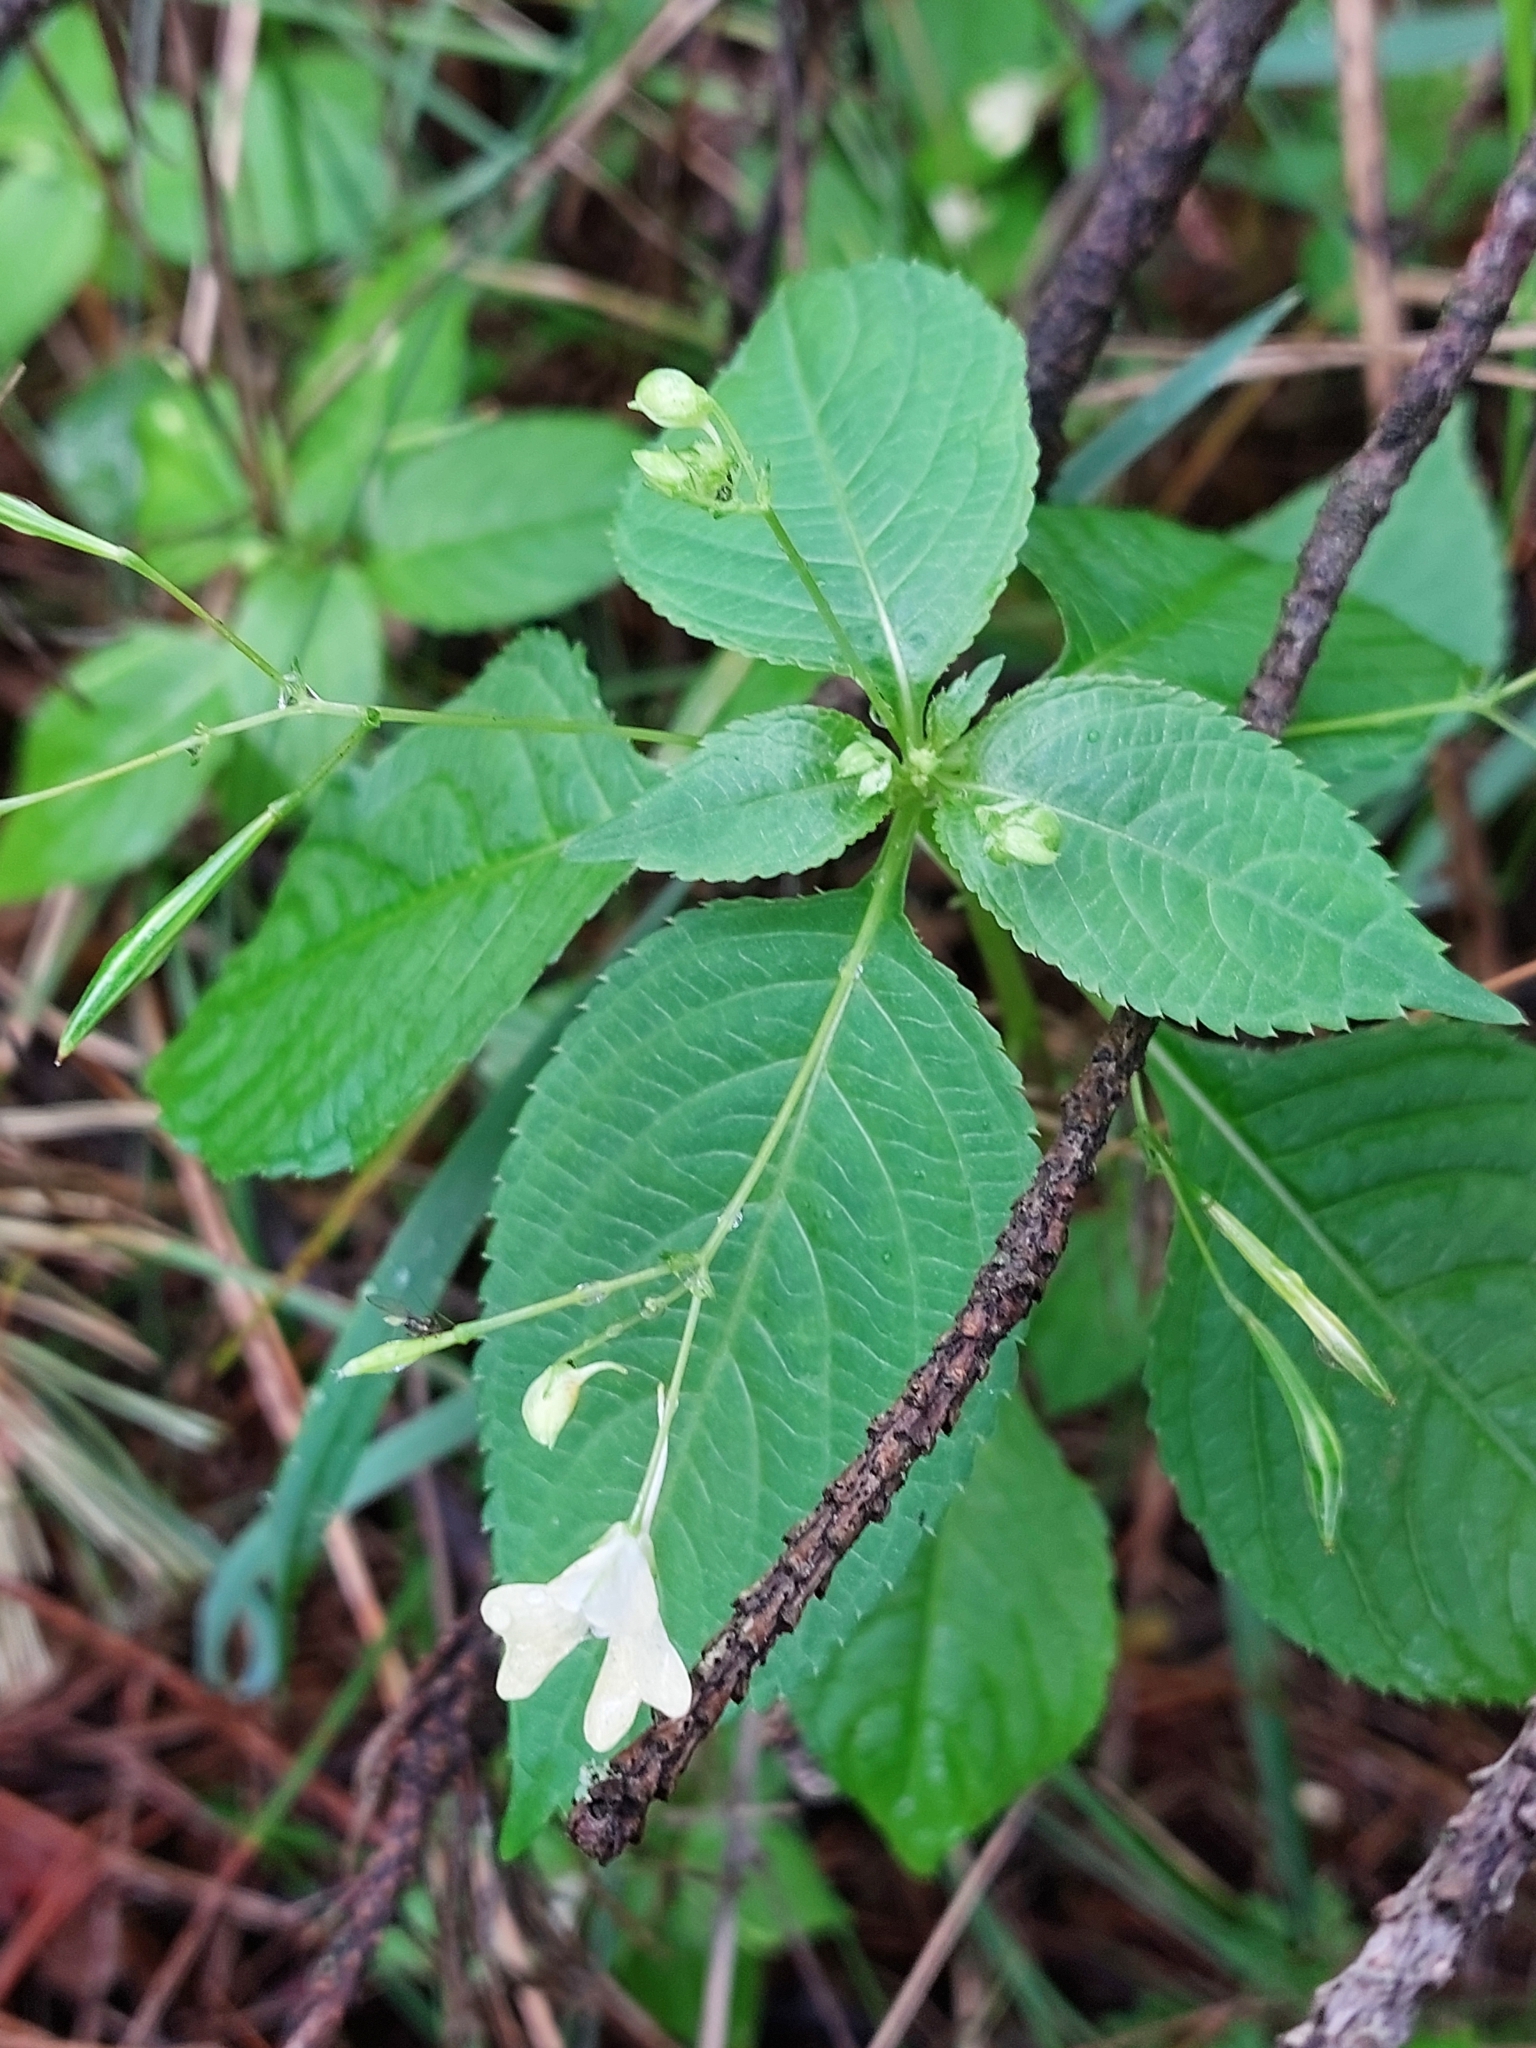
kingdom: Plantae
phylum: Tracheophyta
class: Magnoliopsida
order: Ericales
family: Balsaminaceae
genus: Impatiens
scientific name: Impatiens parviflora
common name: Small balsam
